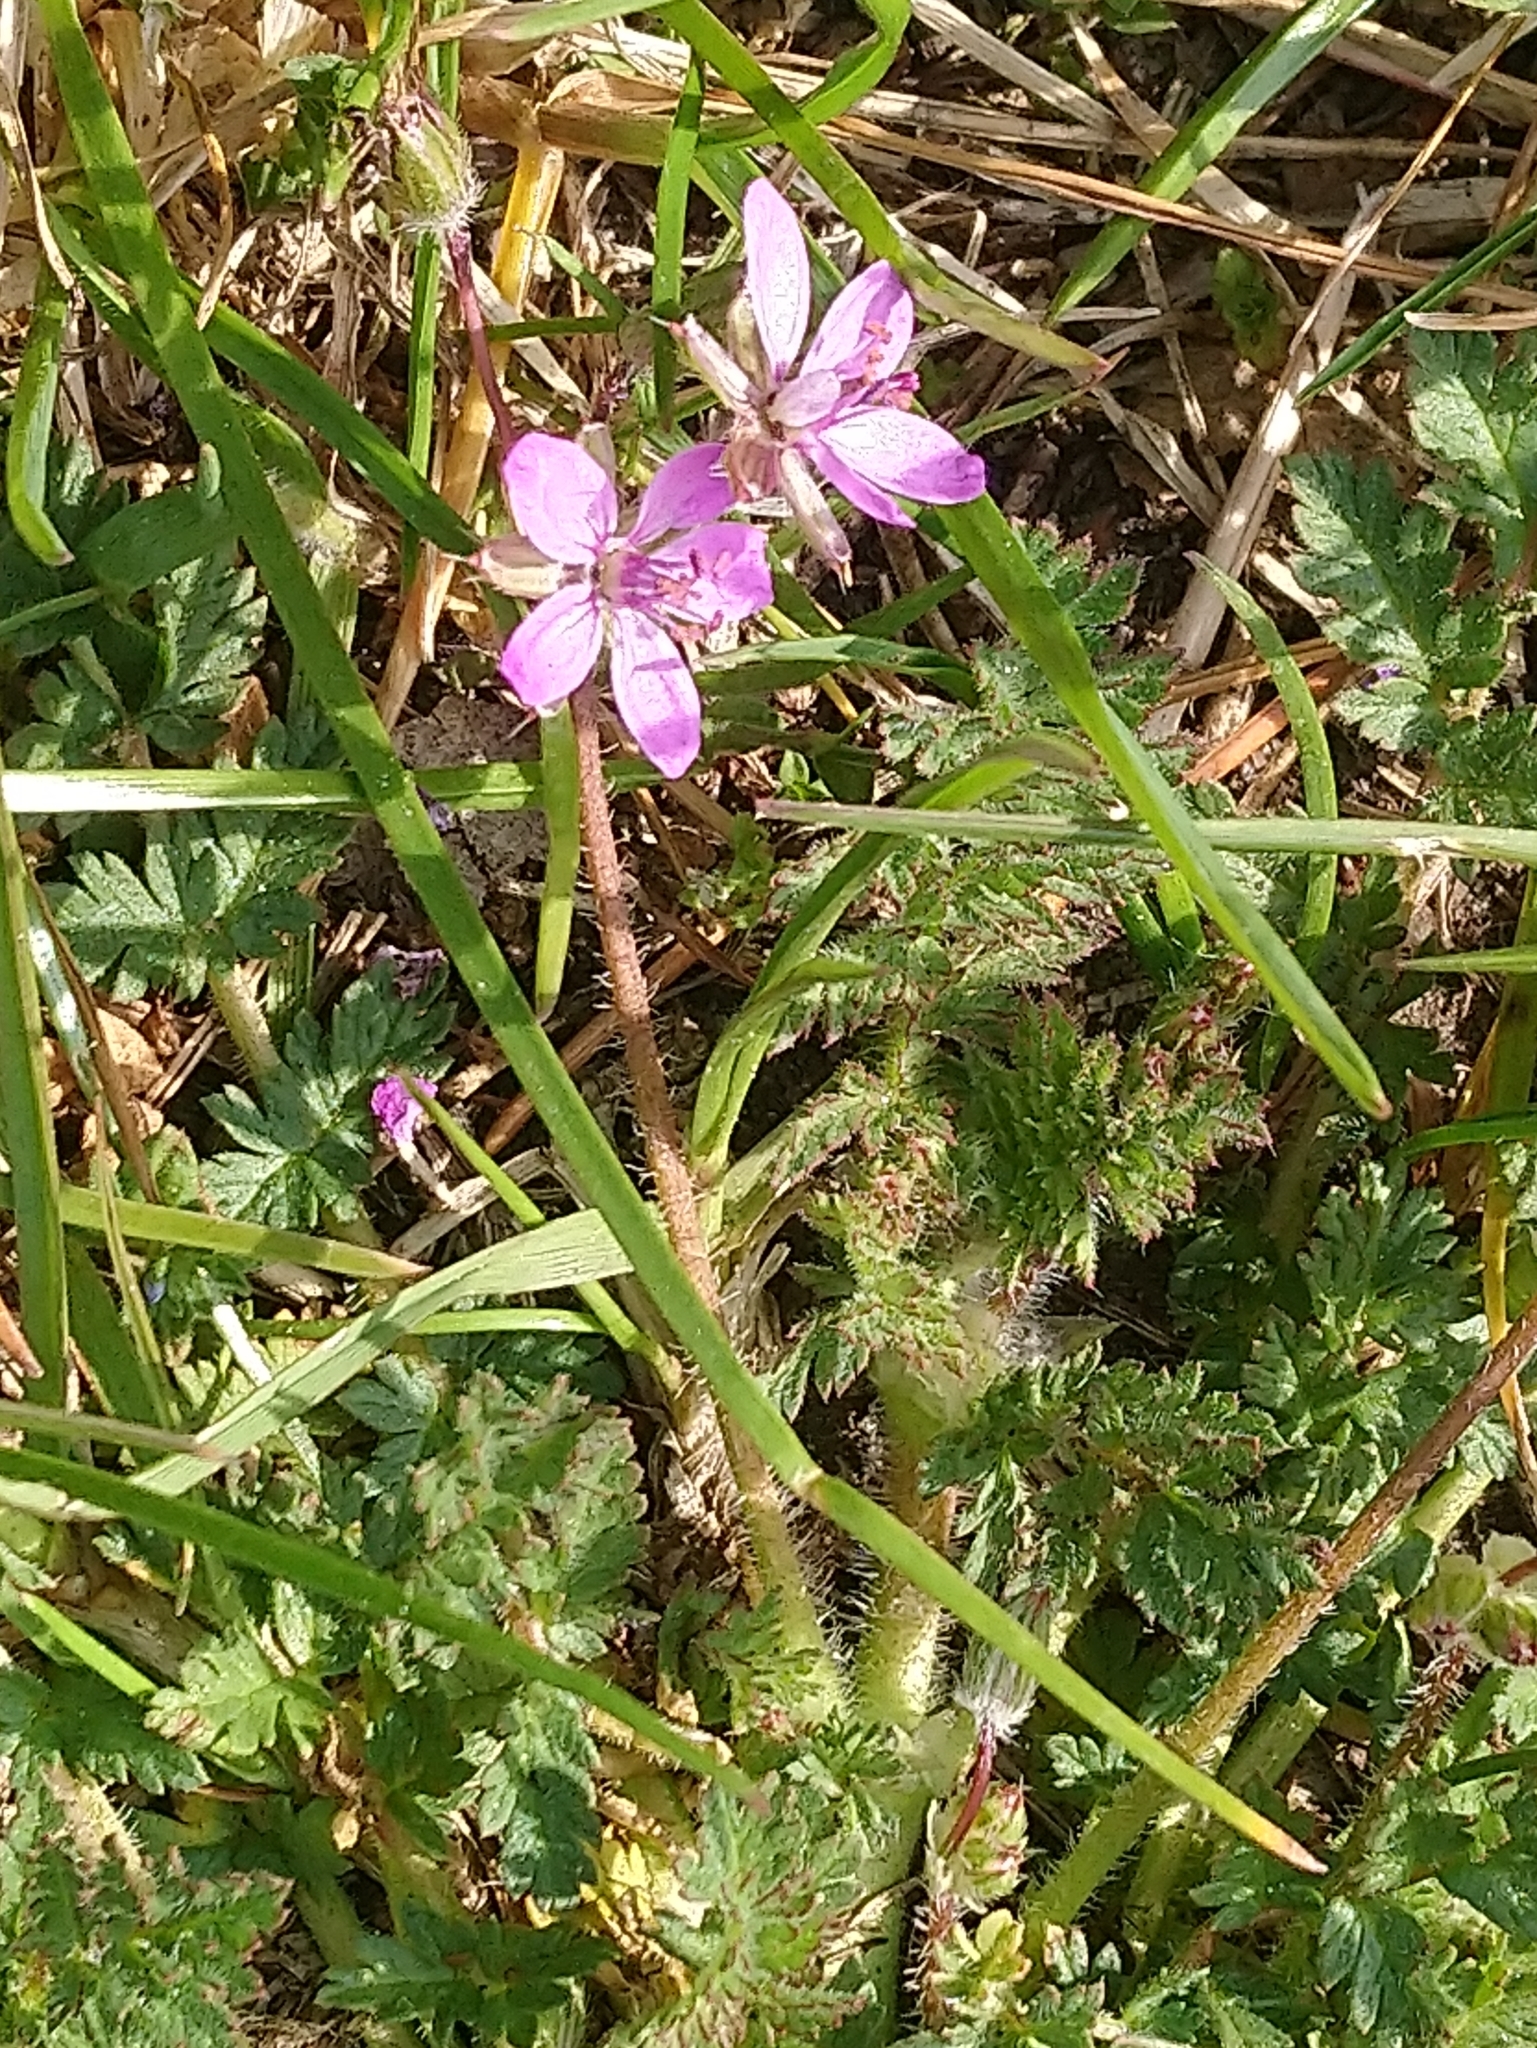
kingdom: Plantae
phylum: Tracheophyta
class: Magnoliopsida
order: Geraniales
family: Geraniaceae
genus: Erodium
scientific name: Erodium cicutarium
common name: Common stork's-bill
